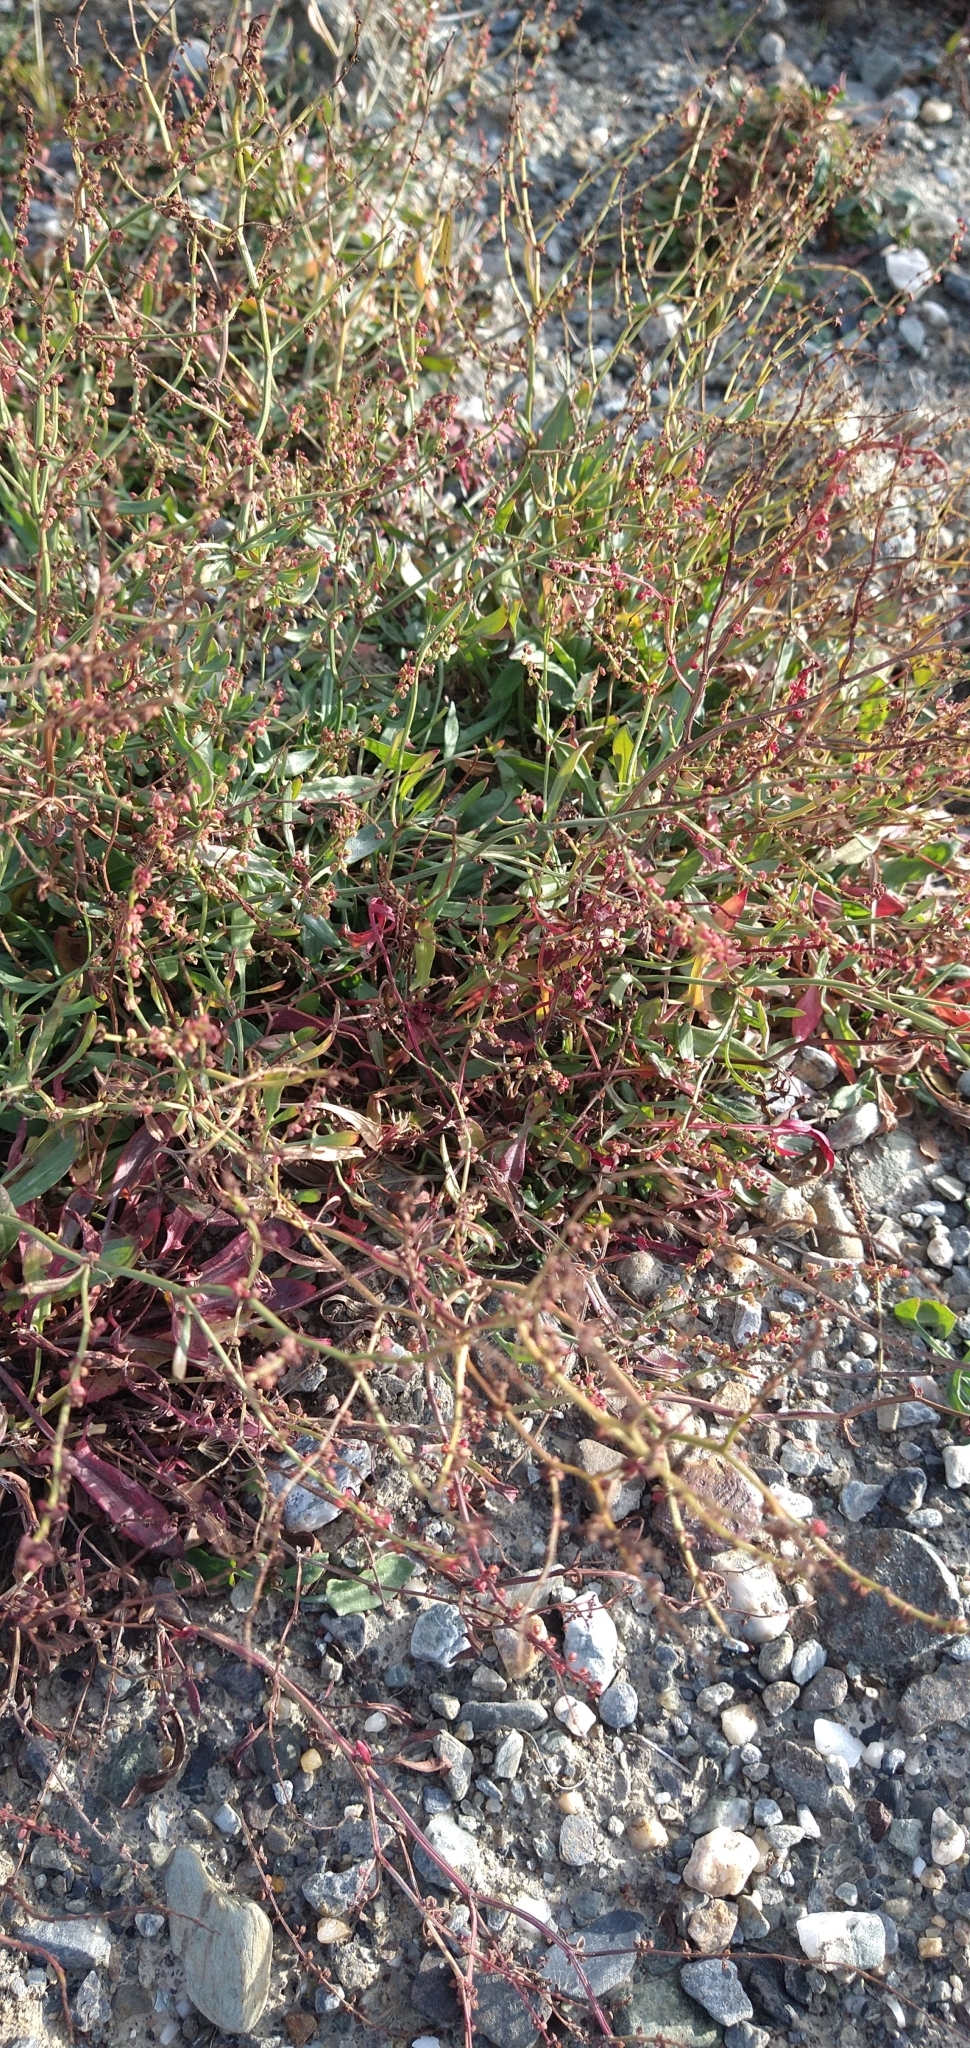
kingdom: Plantae
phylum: Tracheophyta
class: Magnoliopsida
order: Caryophyllales
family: Polygonaceae
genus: Rumex
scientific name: Rumex acetosella
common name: Common sheep sorrel
